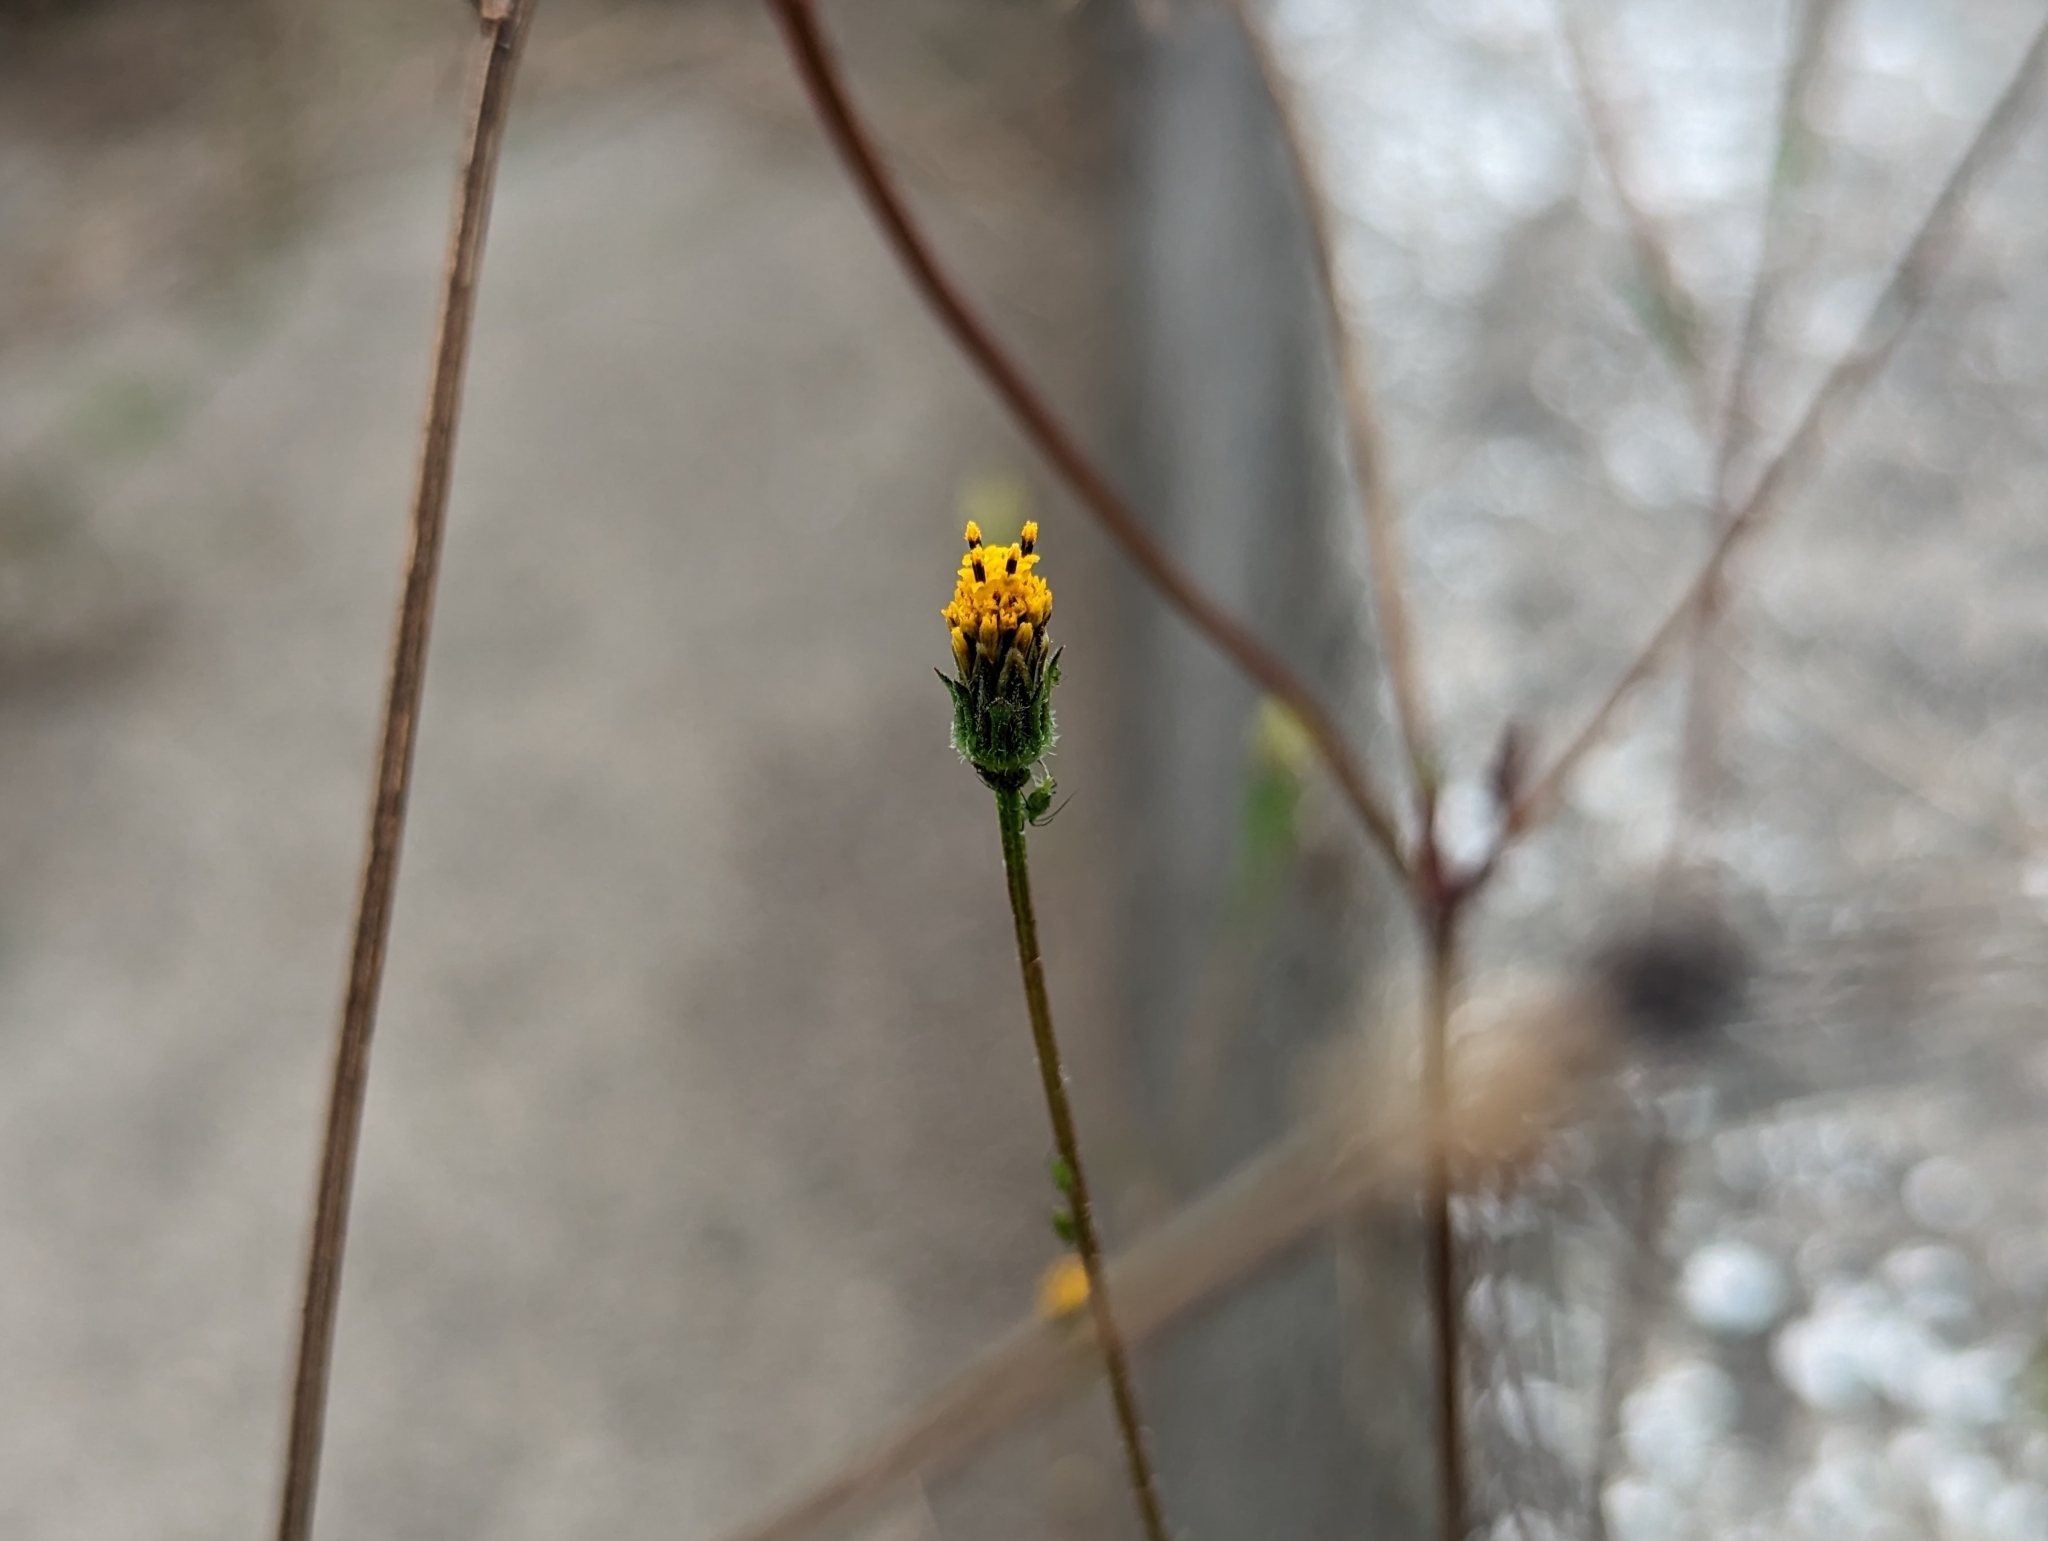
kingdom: Plantae
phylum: Tracheophyta
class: Magnoliopsida
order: Asterales
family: Asteraceae
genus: Bidens
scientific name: Bidens pilosa
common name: Black-jack
